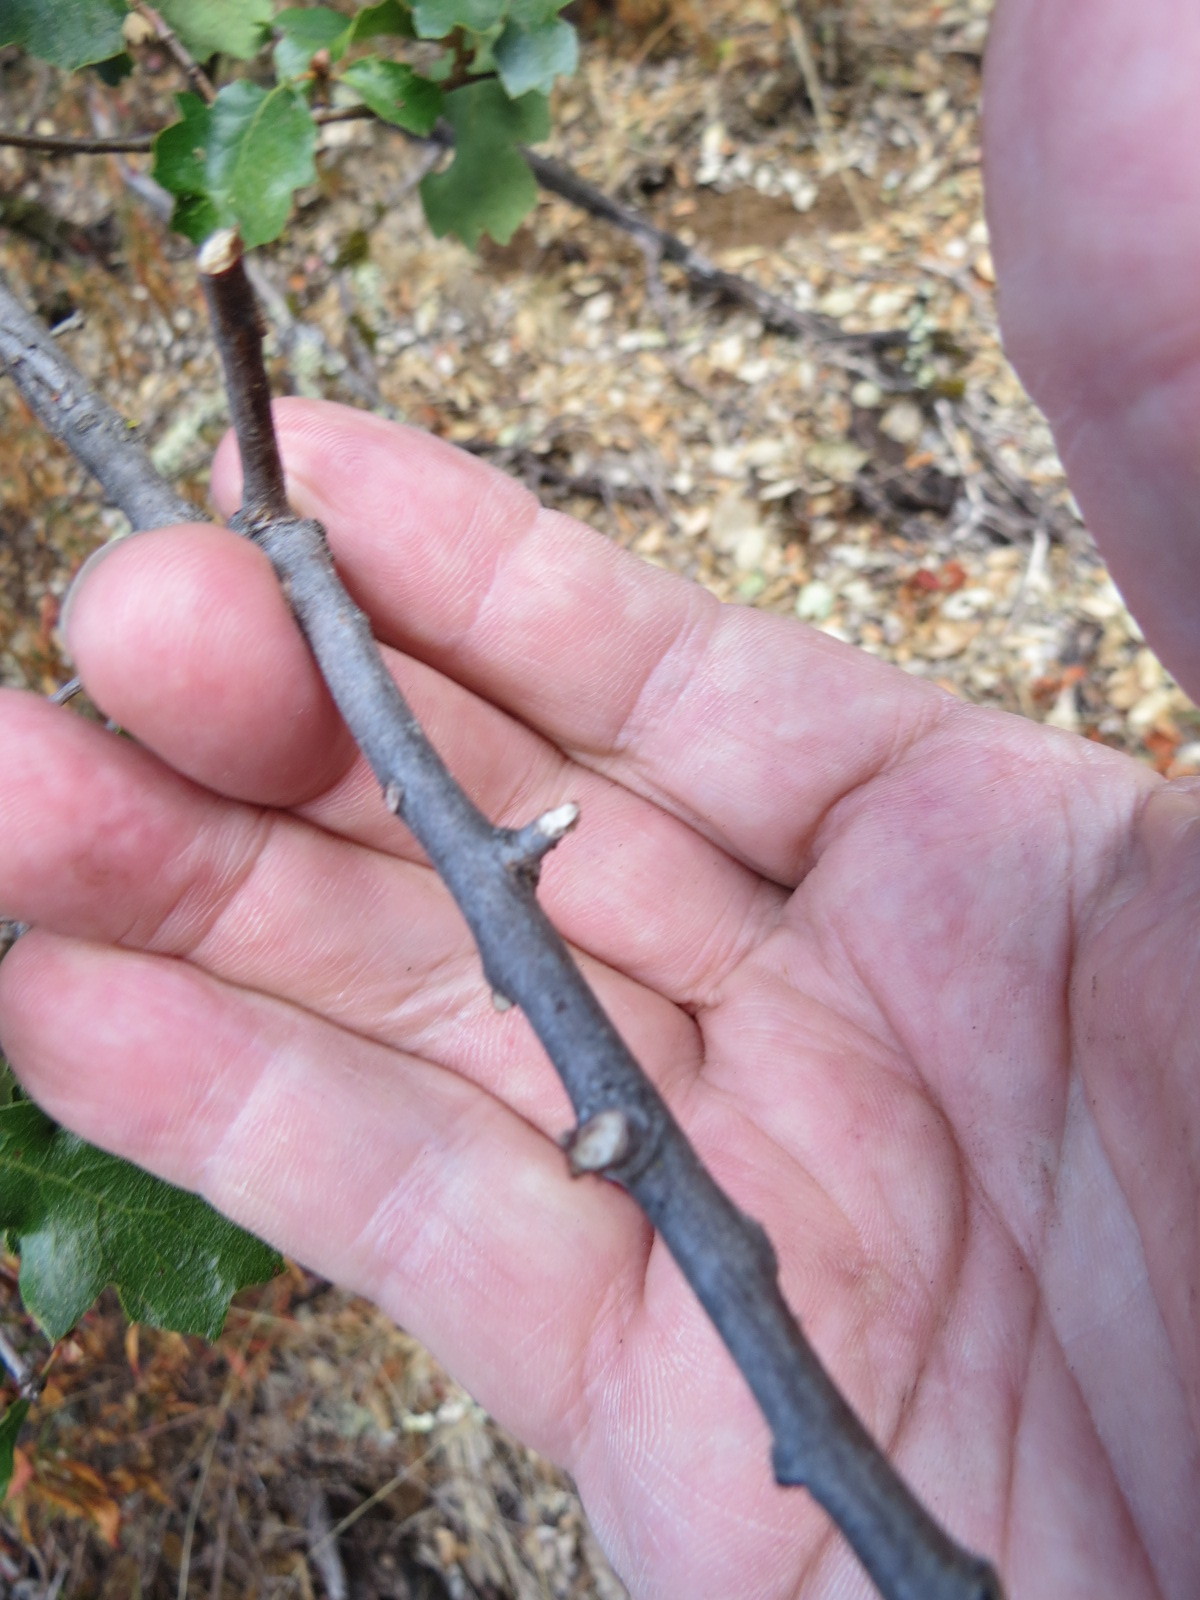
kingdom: Plantae
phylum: Tracheophyta
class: Magnoliopsida
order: Fagales
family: Fagaceae
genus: Quercus
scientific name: Quercus berberidifolia
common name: California scrub oak
